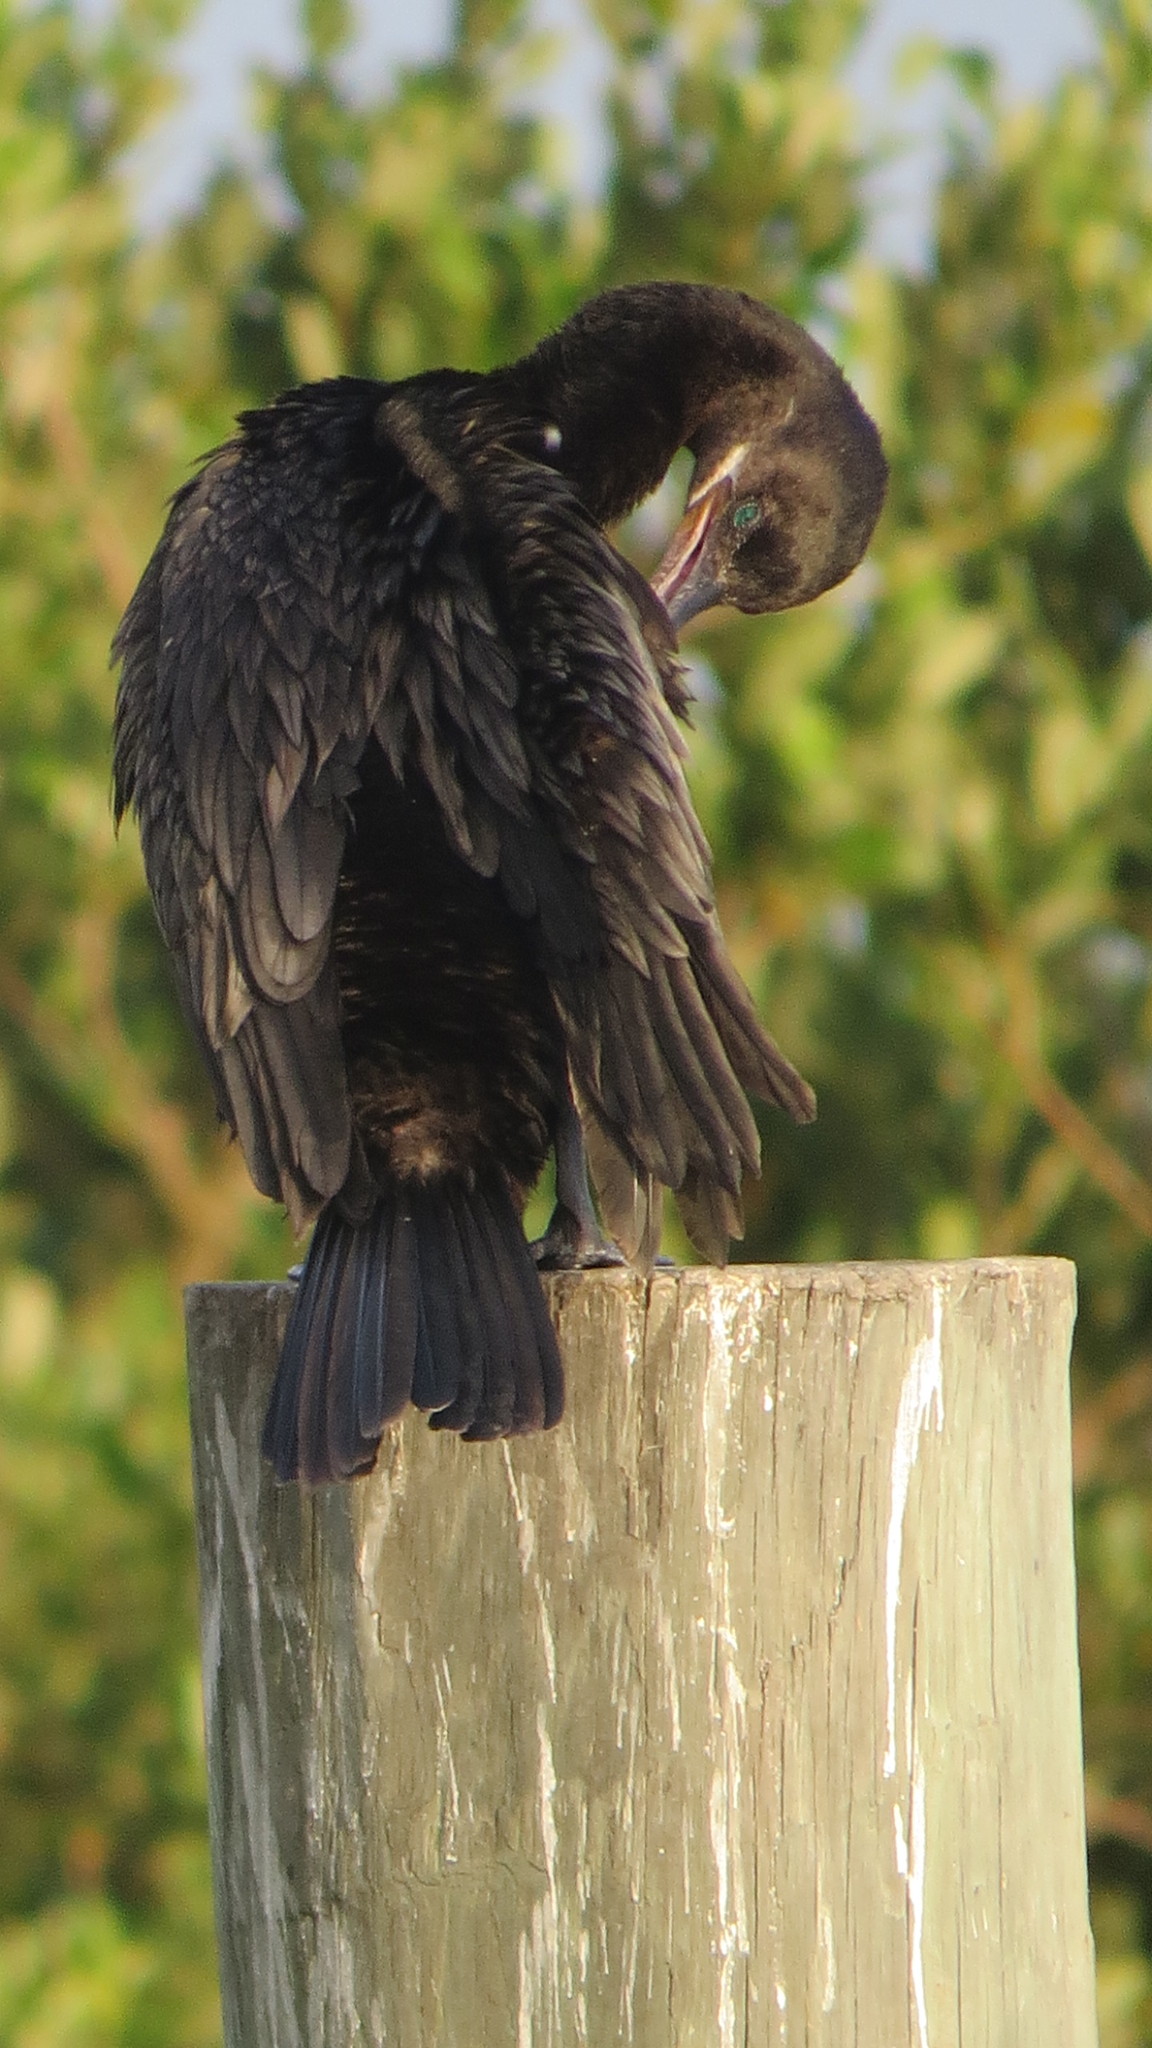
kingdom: Animalia
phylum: Chordata
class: Aves
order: Suliformes
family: Phalacrocoracidae
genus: Phalacrocorax
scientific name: Phalacrocorax brasilianus
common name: Neotropic cormorant
